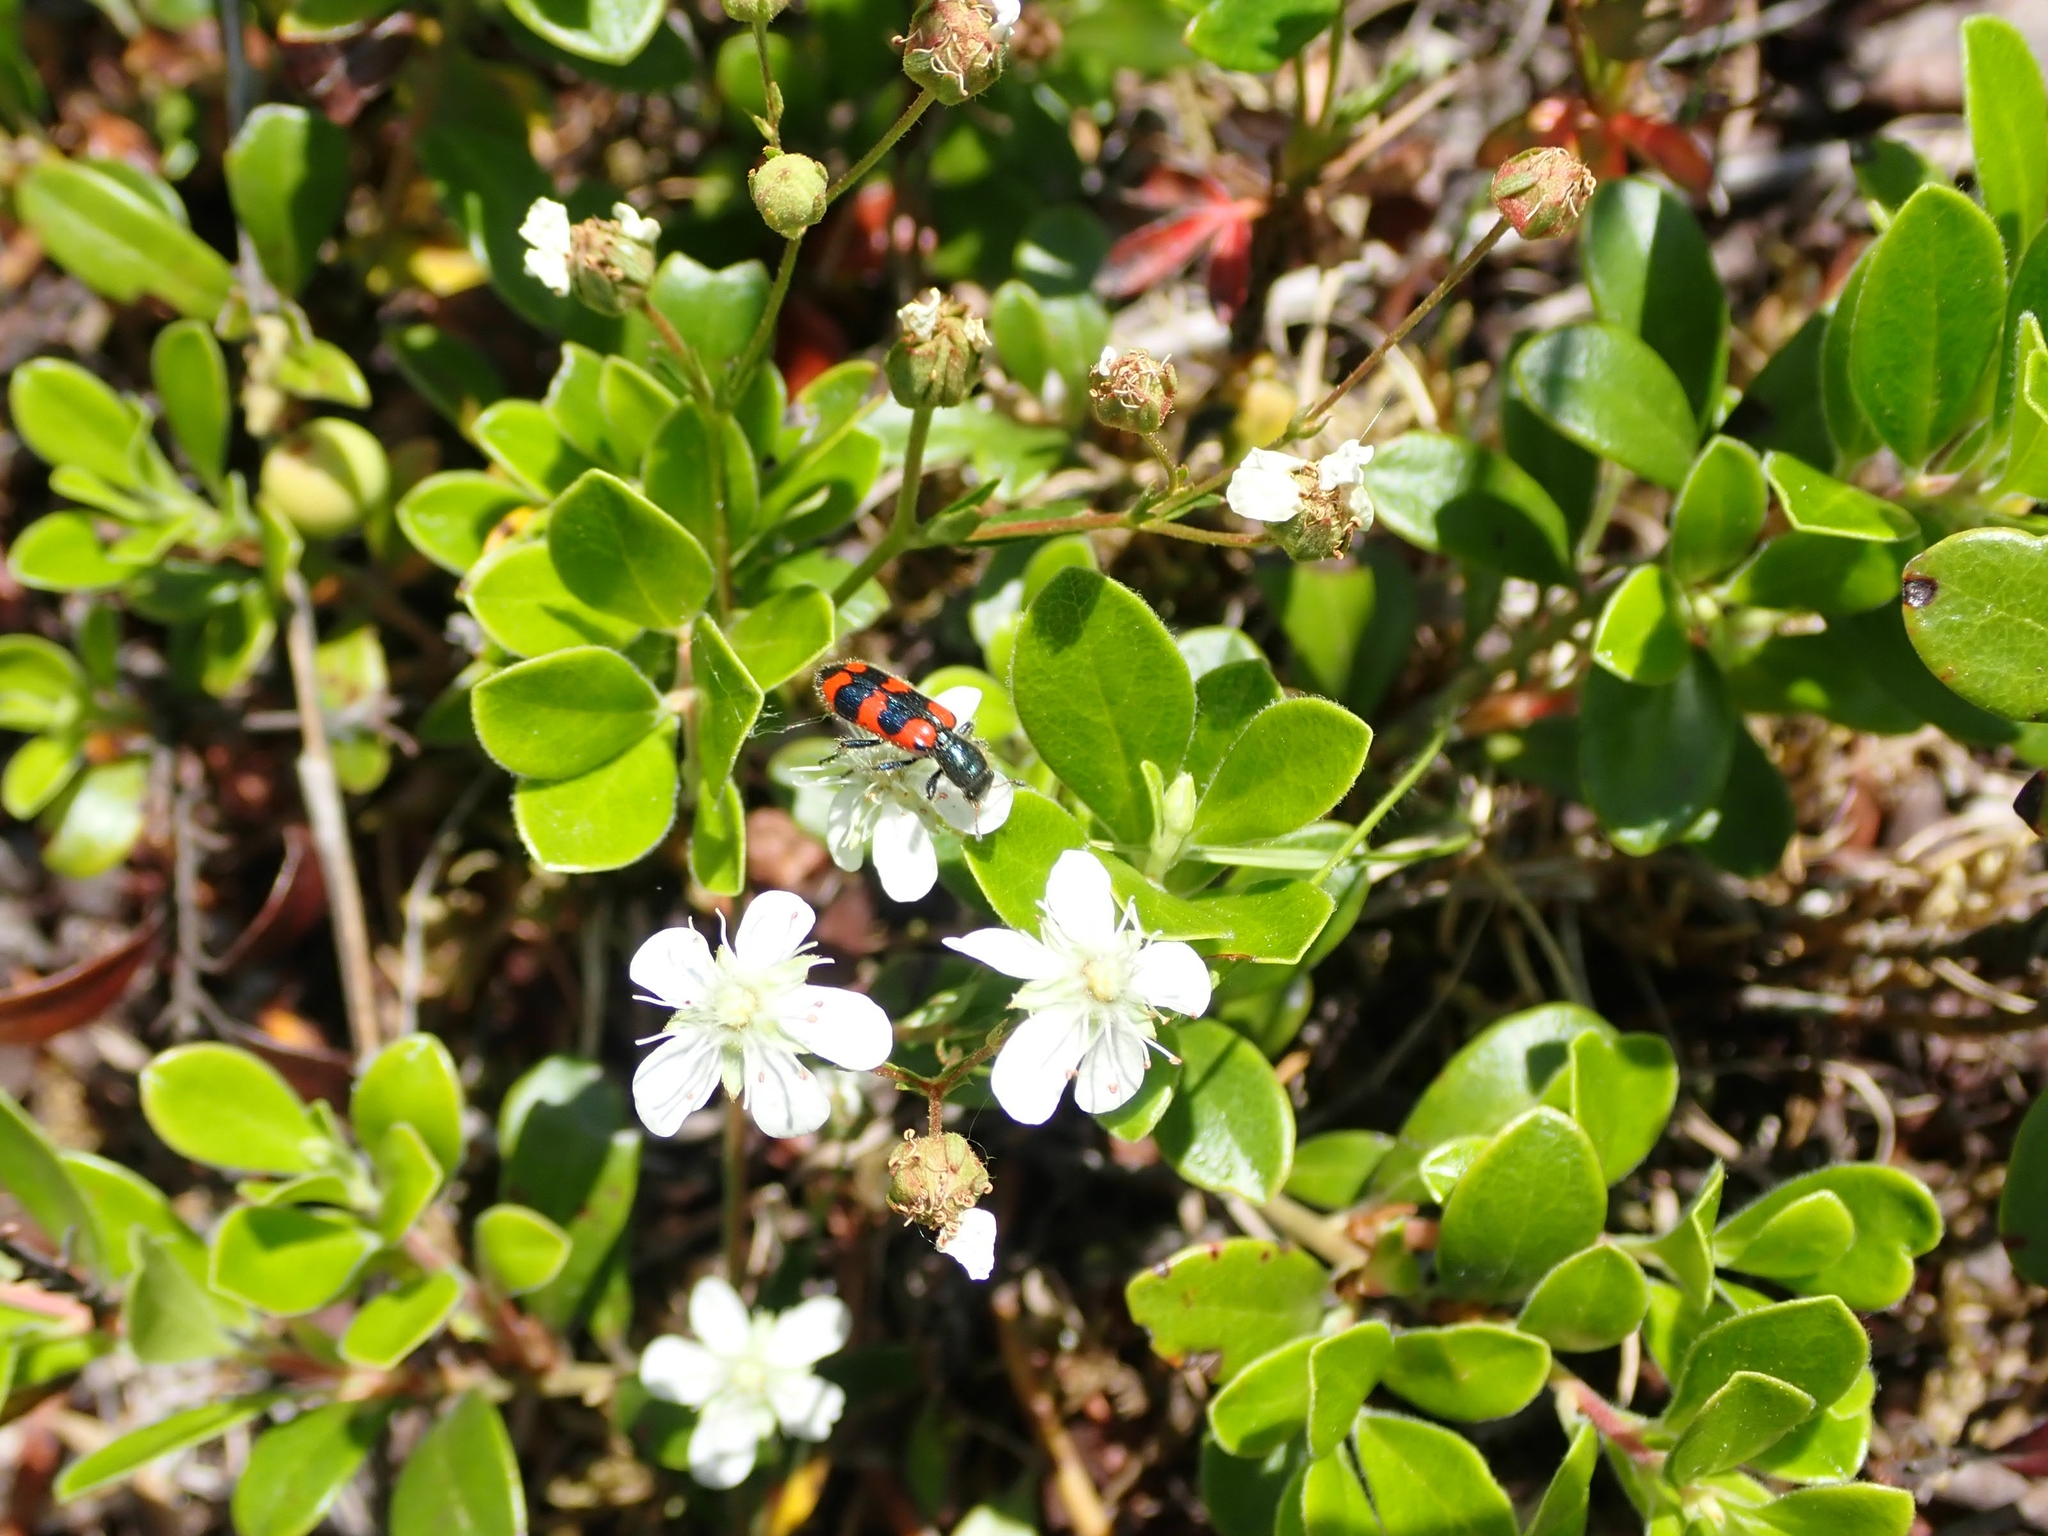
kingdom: Animalia
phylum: Arthropoda
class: Insecta
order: Coleoptera
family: Cleridae
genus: Trichodes
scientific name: Trichodes nutalli
